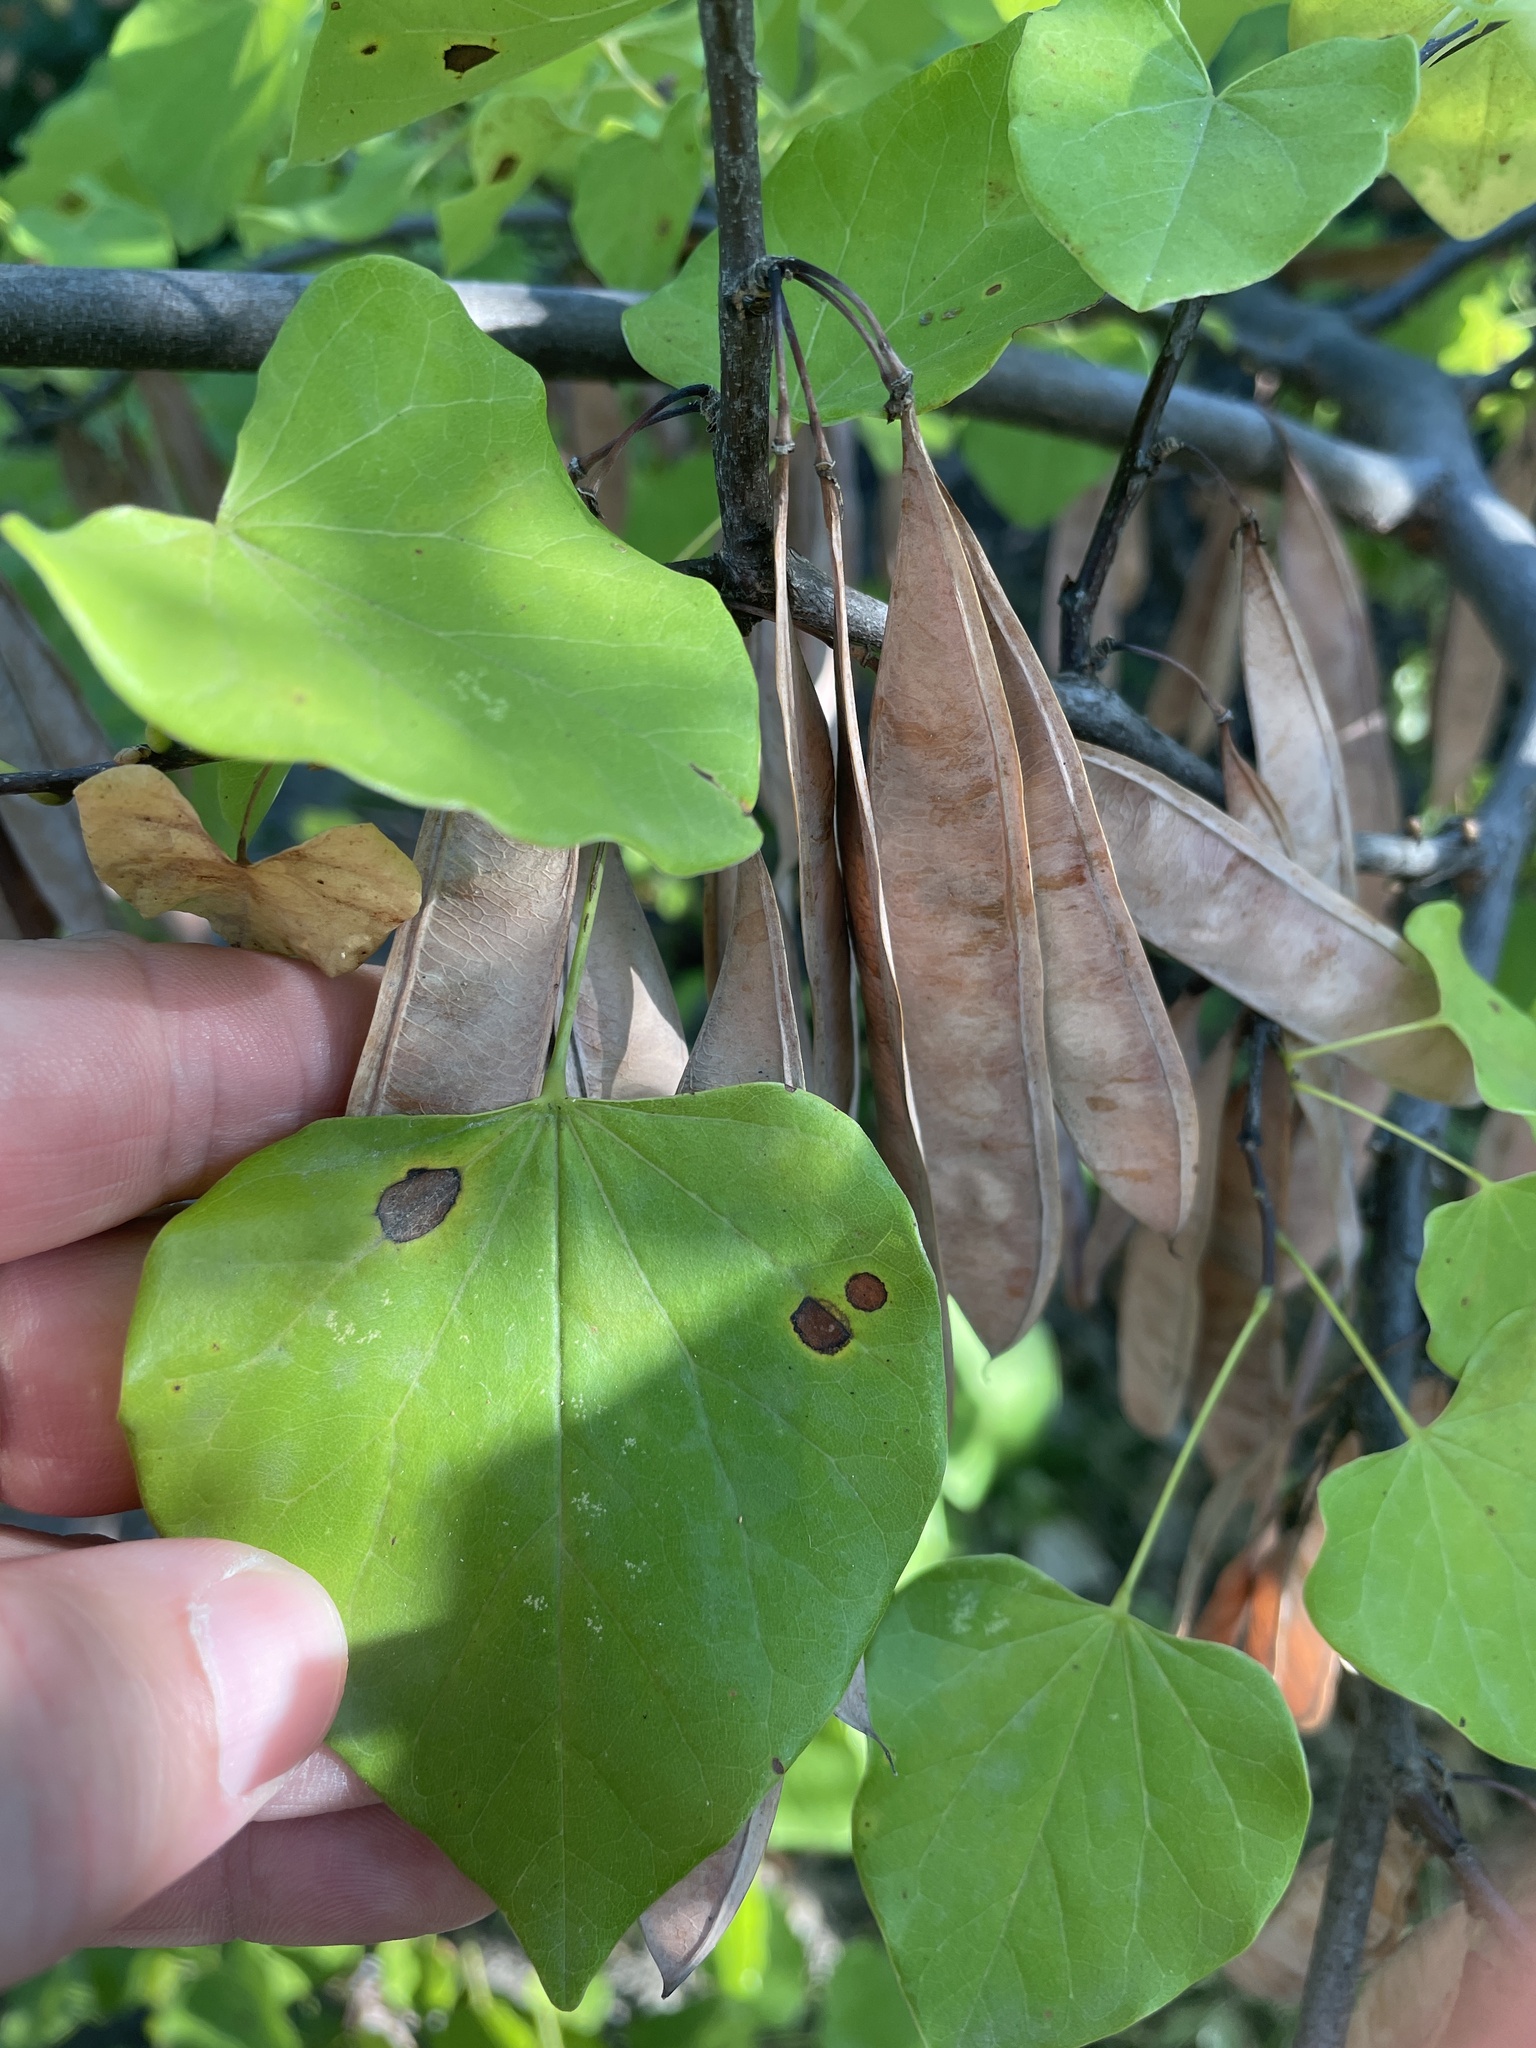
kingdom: Plantae
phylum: Tracheophyta
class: Magnoliopsida
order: Fabales
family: Fabaceae
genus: Cercis
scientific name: Cercis canadensis
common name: Eastern redbud
